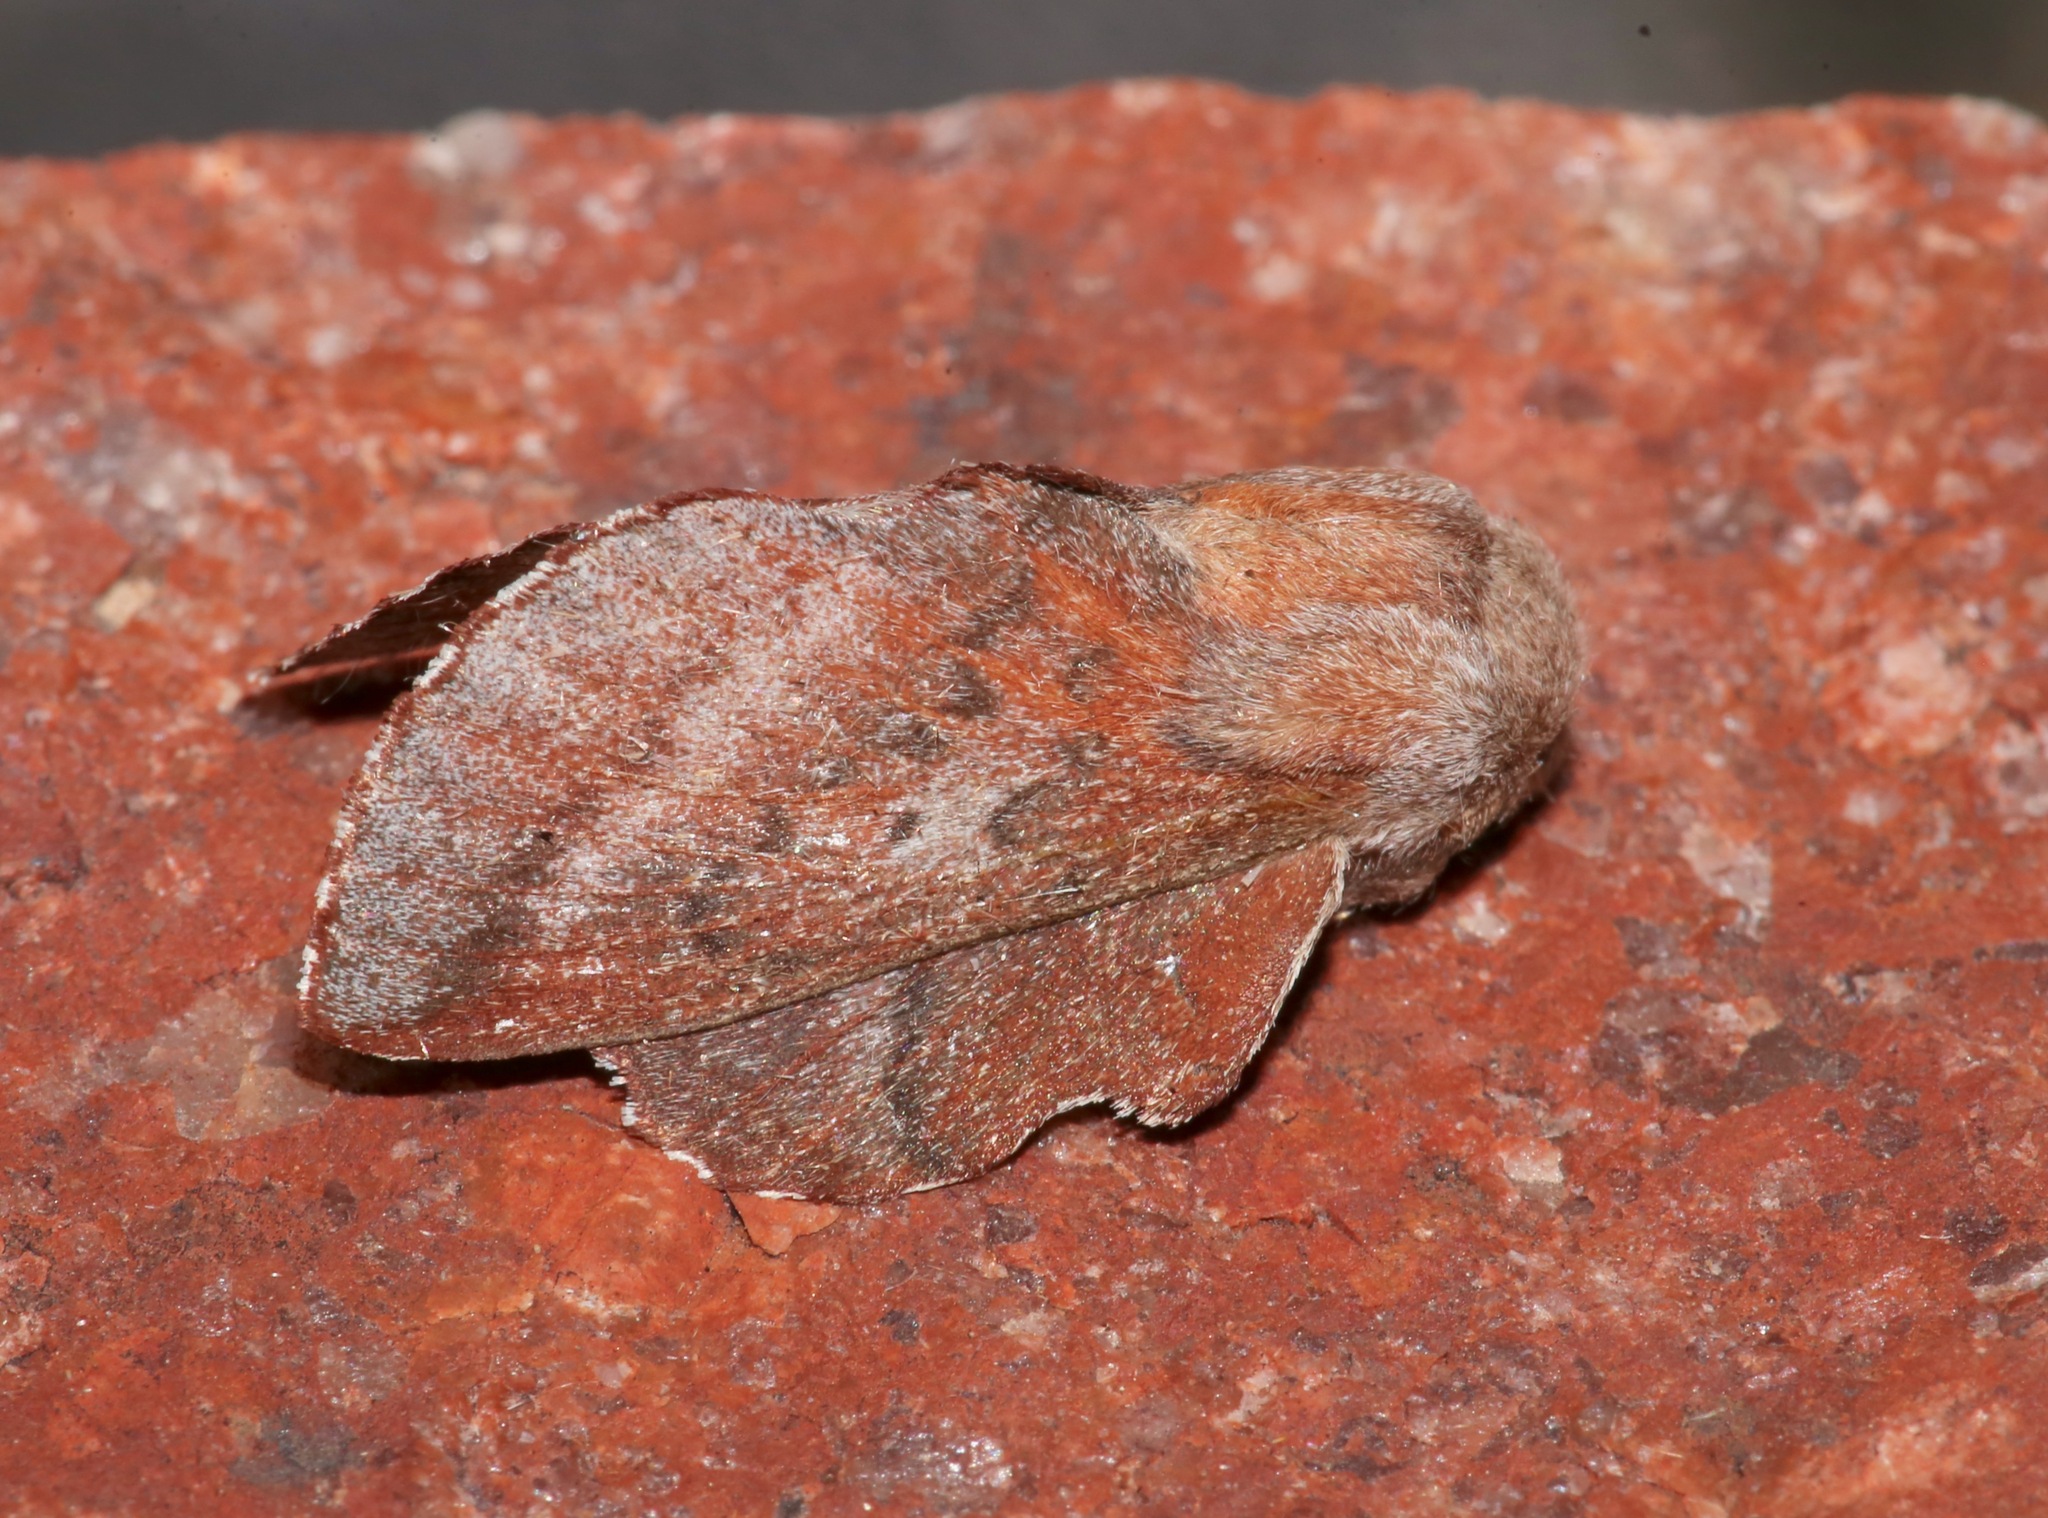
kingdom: Animalia
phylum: Arthropoda
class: Insecta
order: Lepidoptera
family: Lasiocampidae
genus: Phyllodesma
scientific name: Phyllodesma americana
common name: American lappet moth
